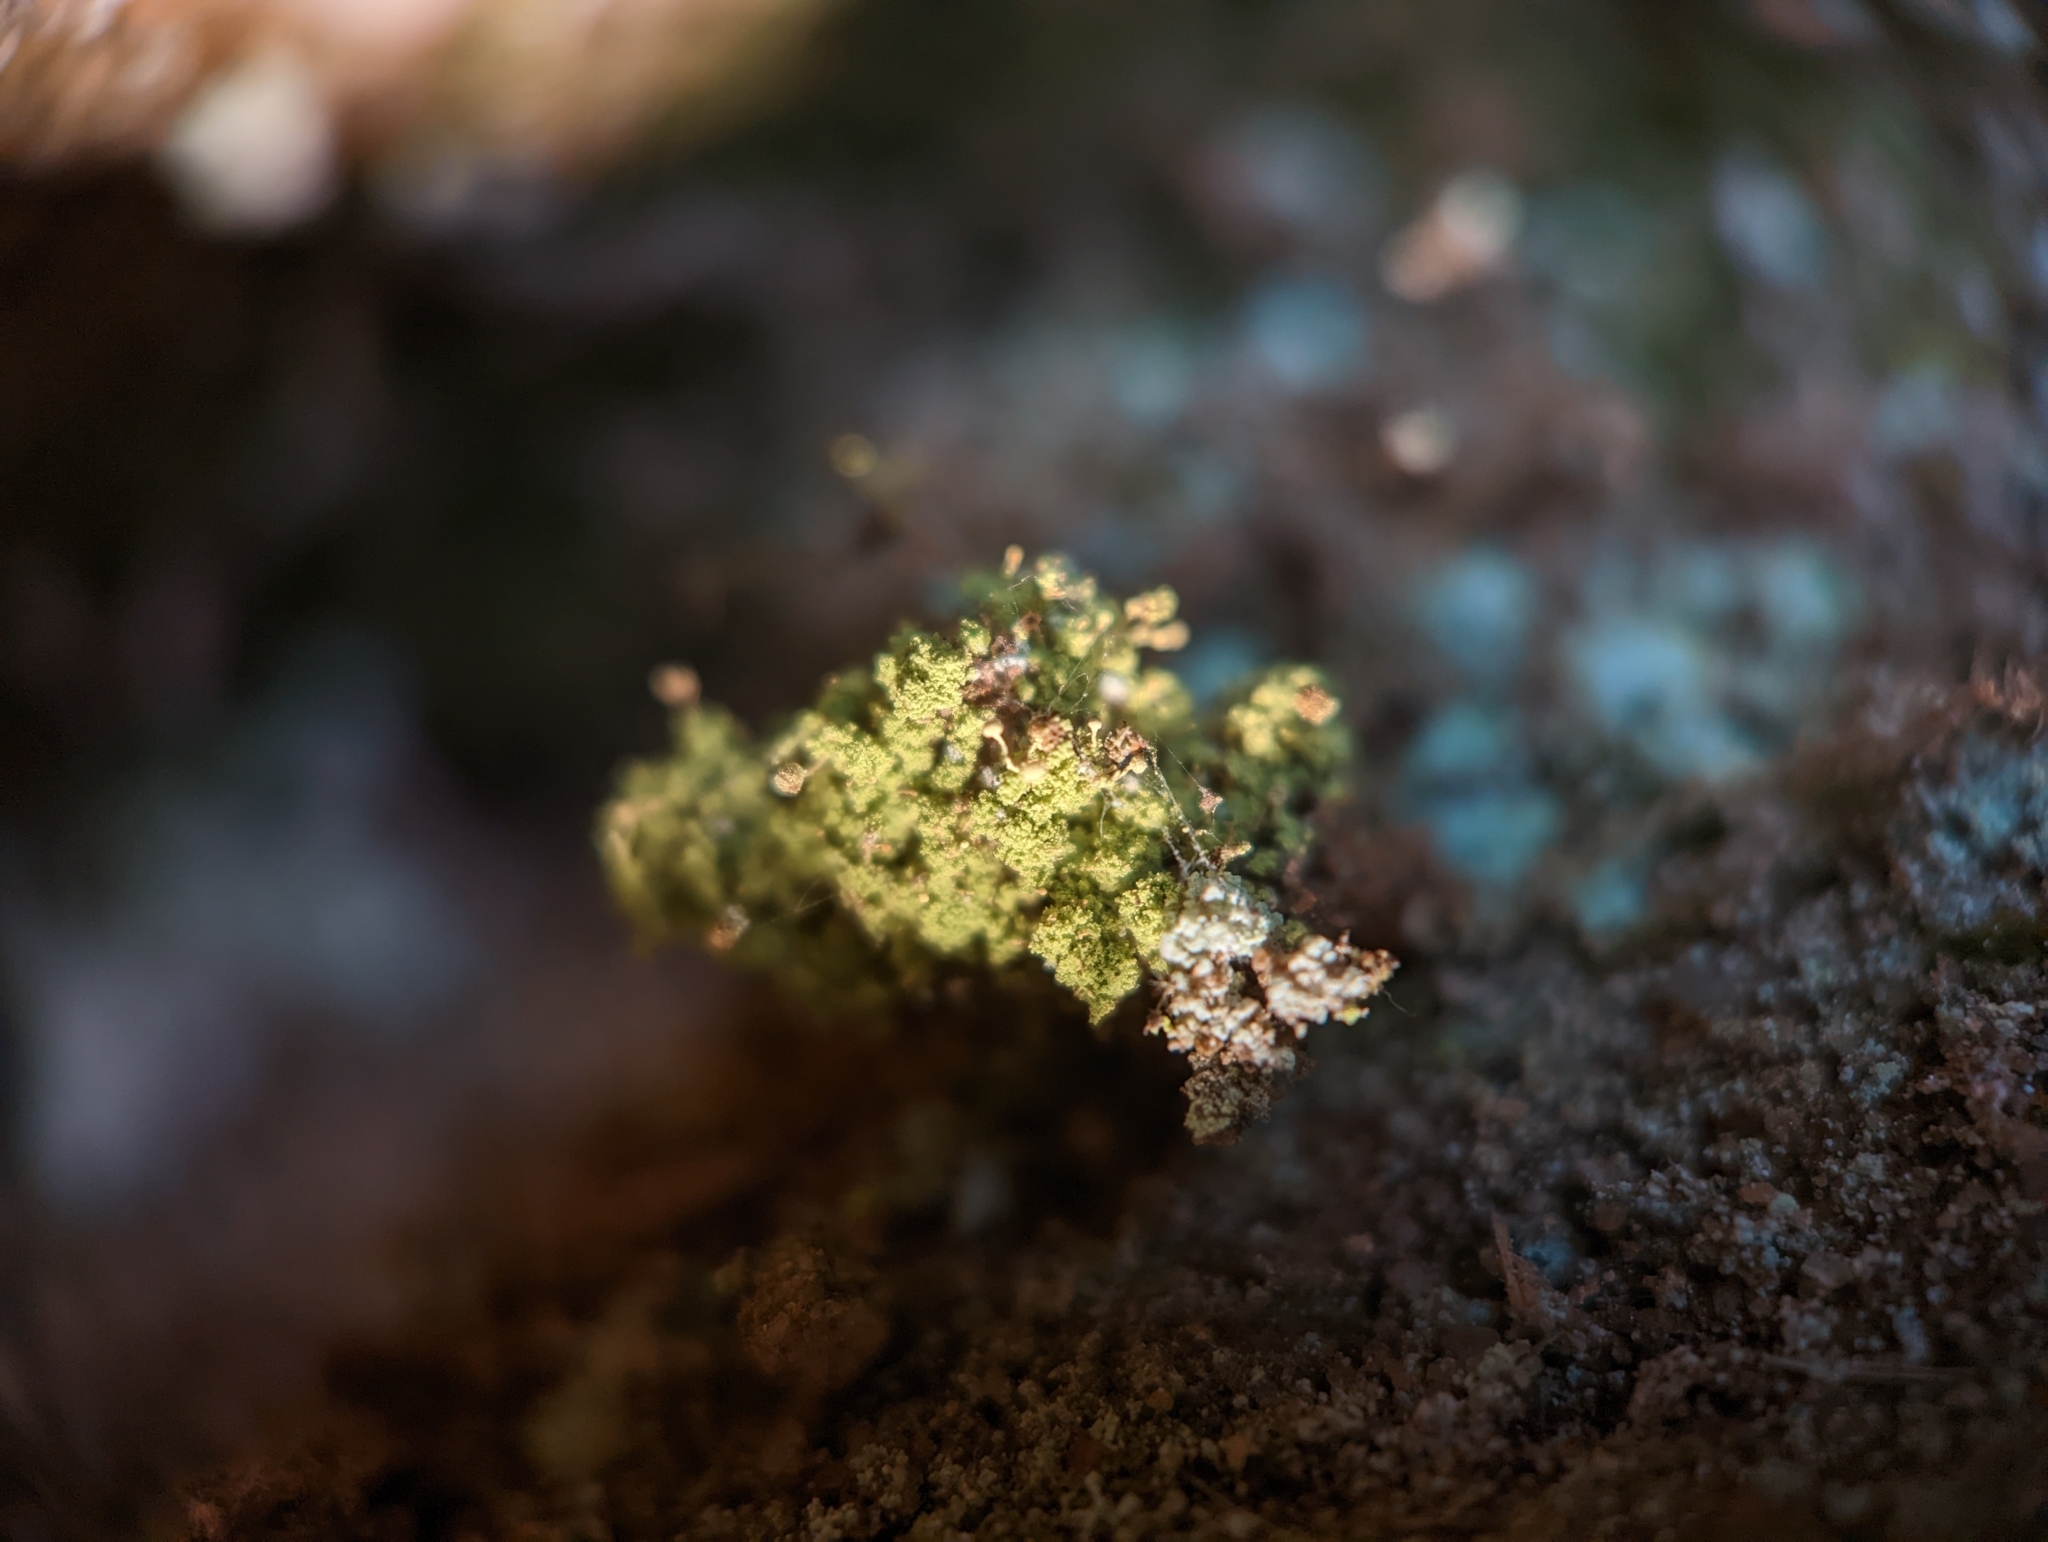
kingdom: Fungi
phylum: Ascomycota
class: Coniocybomycetes
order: Coniocybales
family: Coniocybaceae
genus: Chaenotheca
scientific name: Chaenotheca furfuracea
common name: Sulphur stubble lichen
